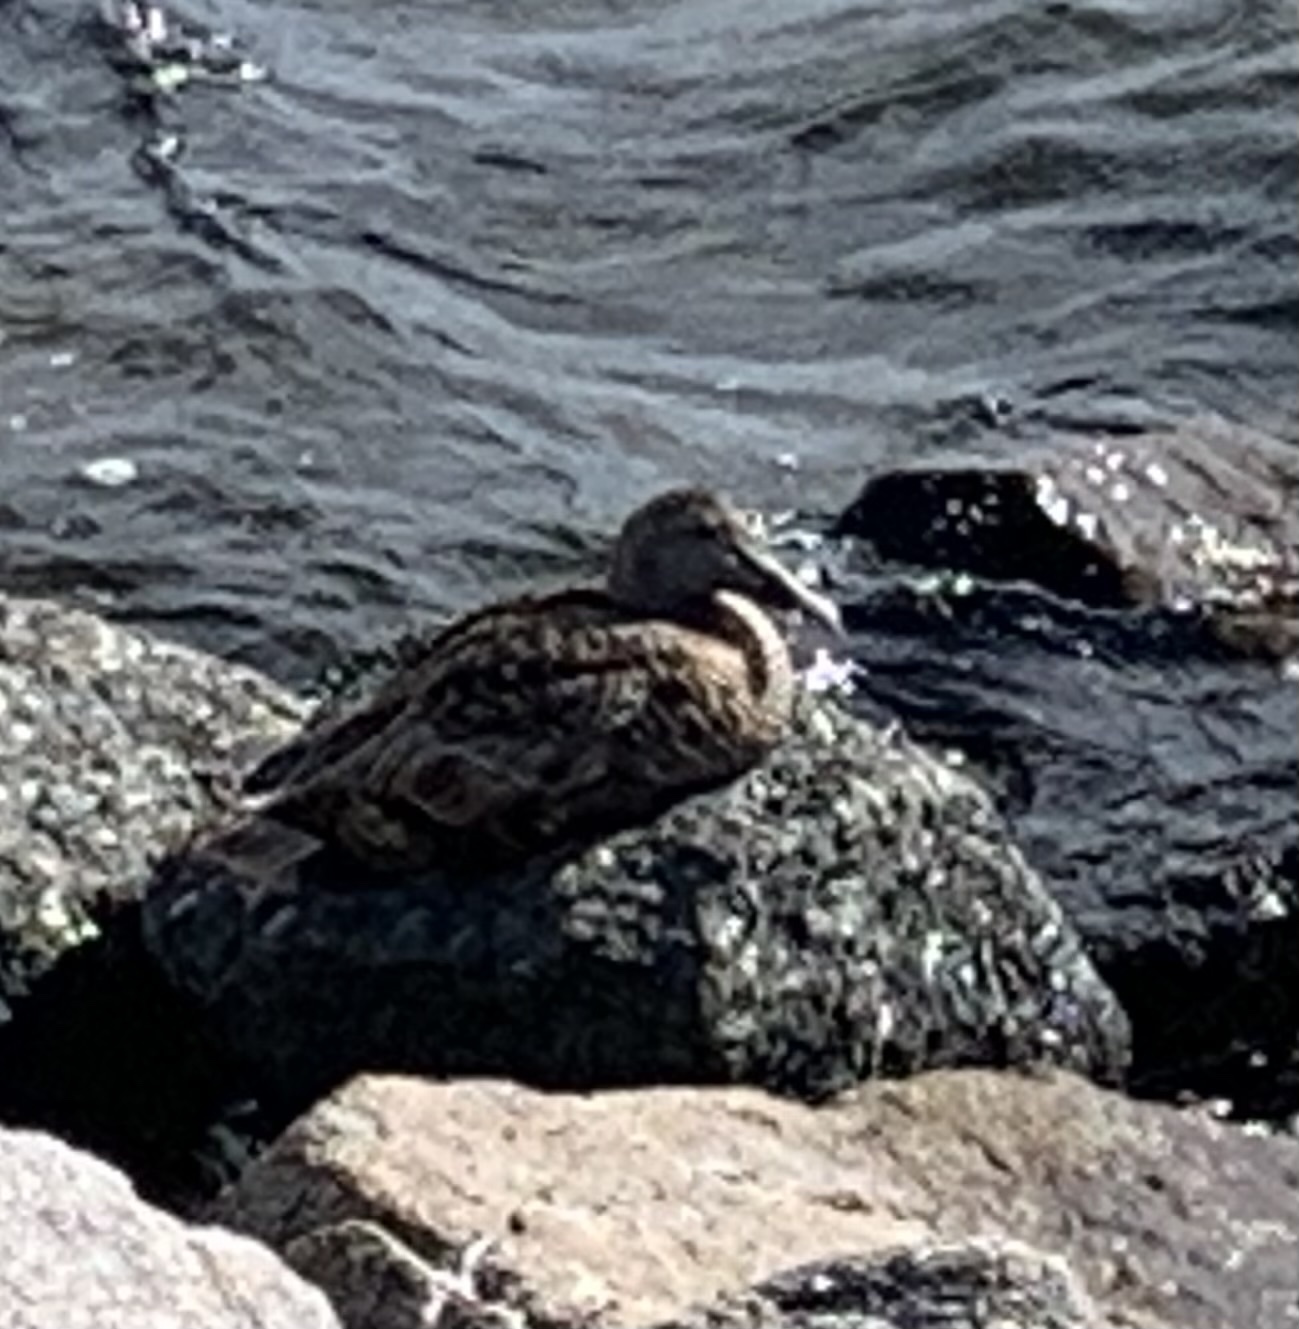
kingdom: Animalia
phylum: Chordata
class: Aves
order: Anseriformes
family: Anatidae
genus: Somateria
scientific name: Somateria mollissima
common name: Common eider
